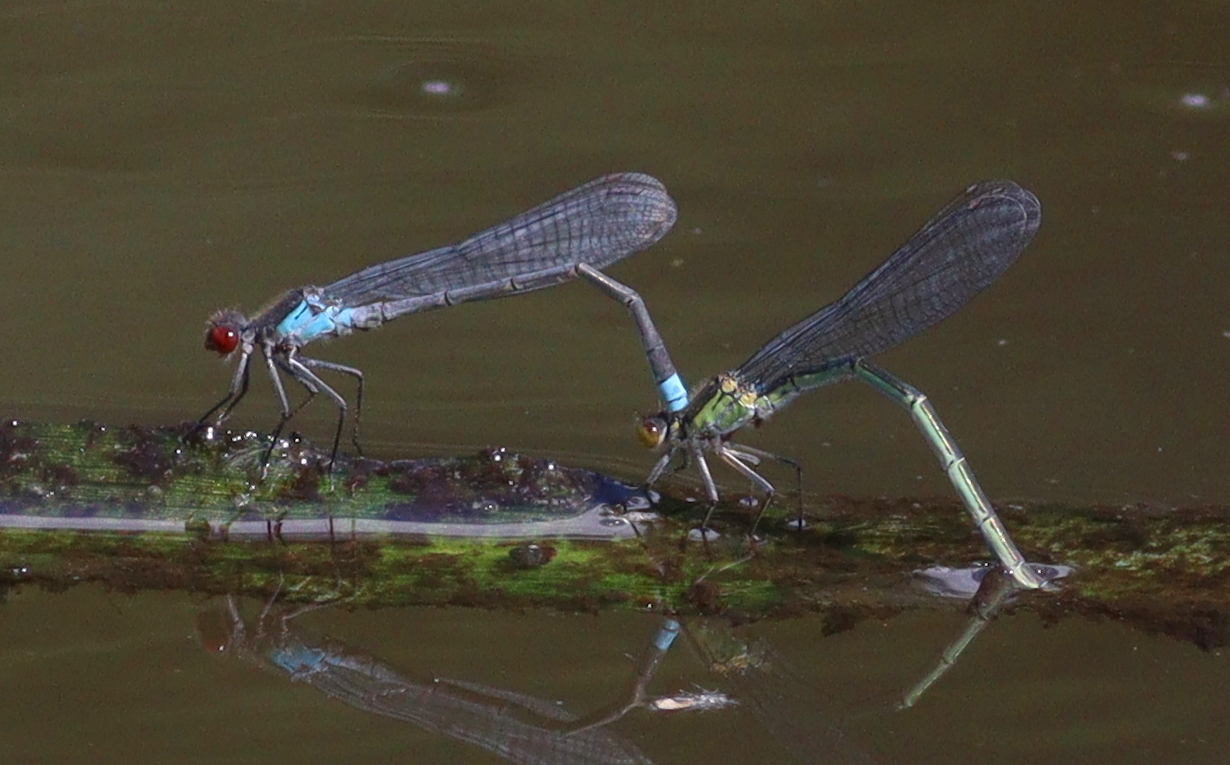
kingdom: Animalia
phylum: Arthropoda
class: Insecta
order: Odonata
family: Coenagrionidae
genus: Erythromma
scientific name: Erythromma najas
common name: Red-eyed damselfly
